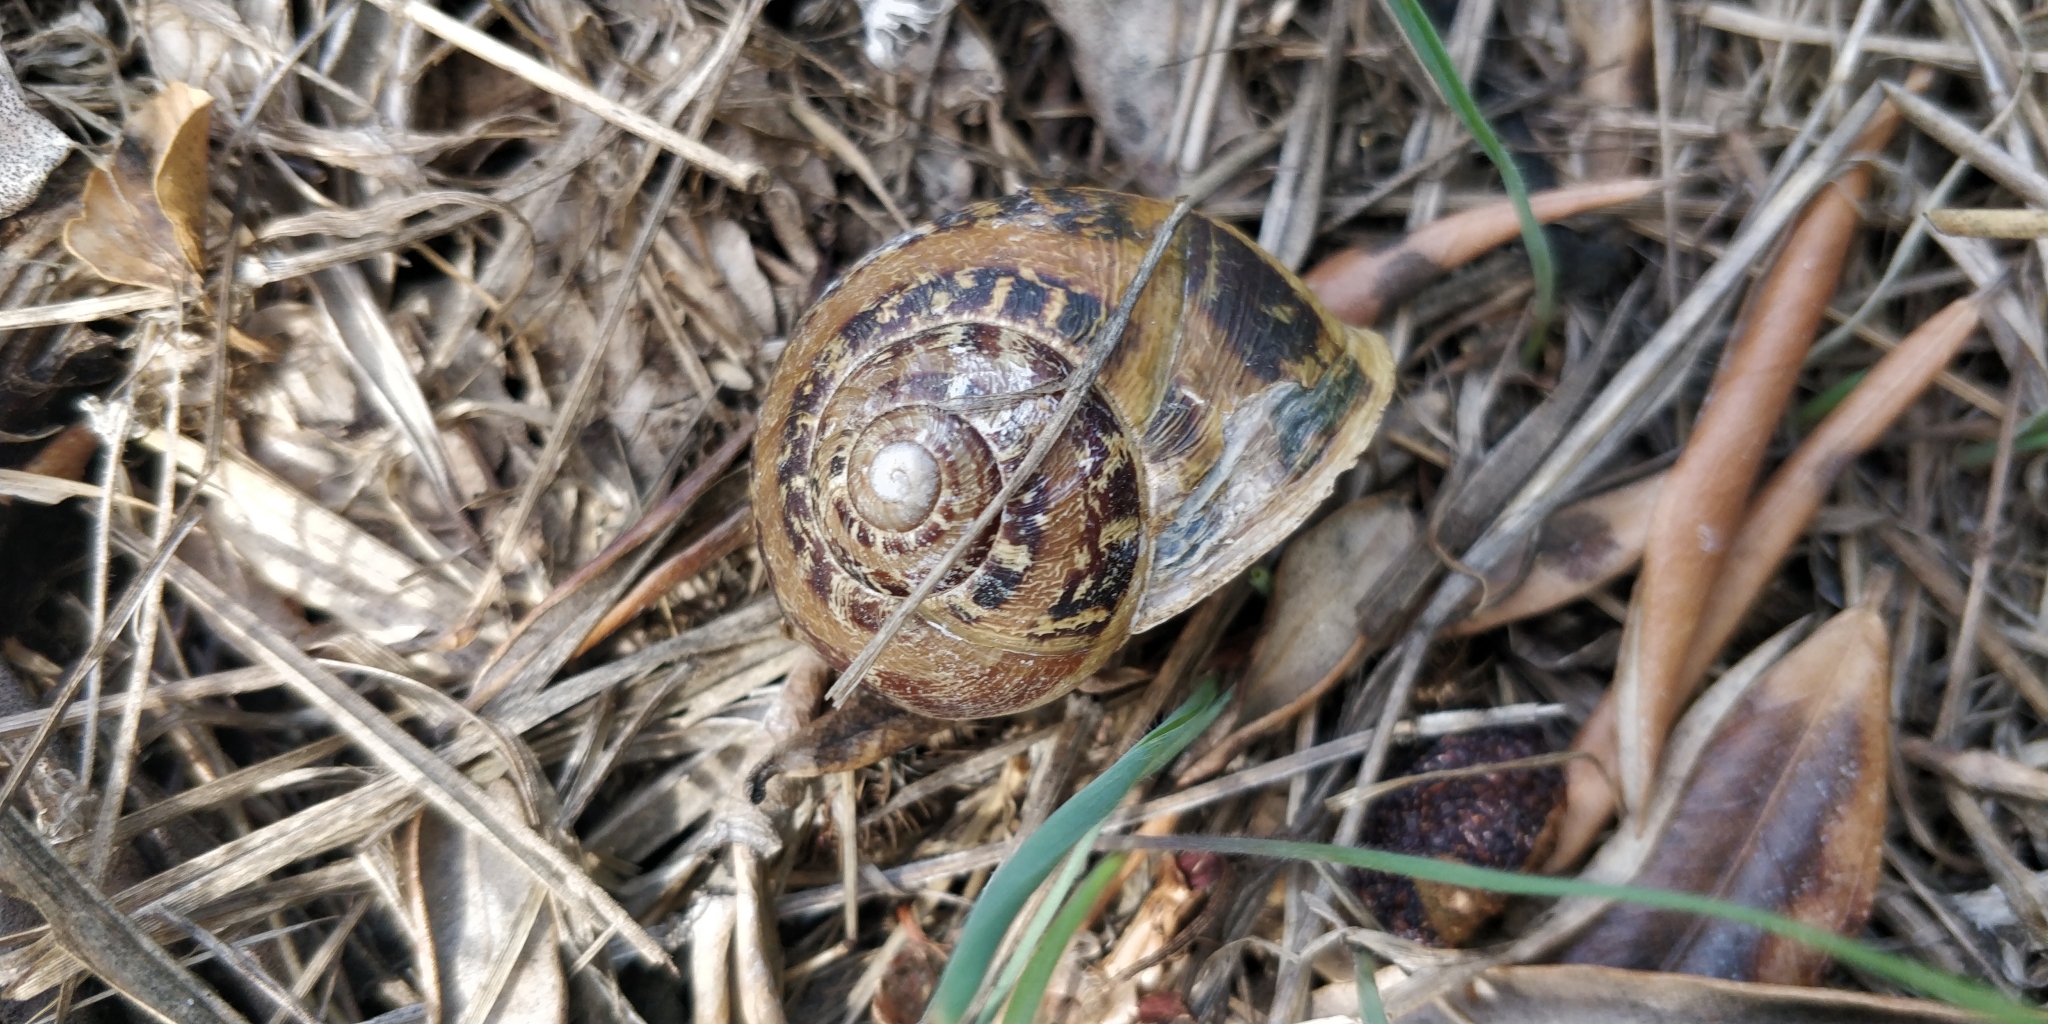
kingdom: Animalia
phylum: Mollusca
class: Gastropoda
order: Stylommatophora
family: Helicidae
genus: Cornu
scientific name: Cornu aspersum
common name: Brown garden snail
